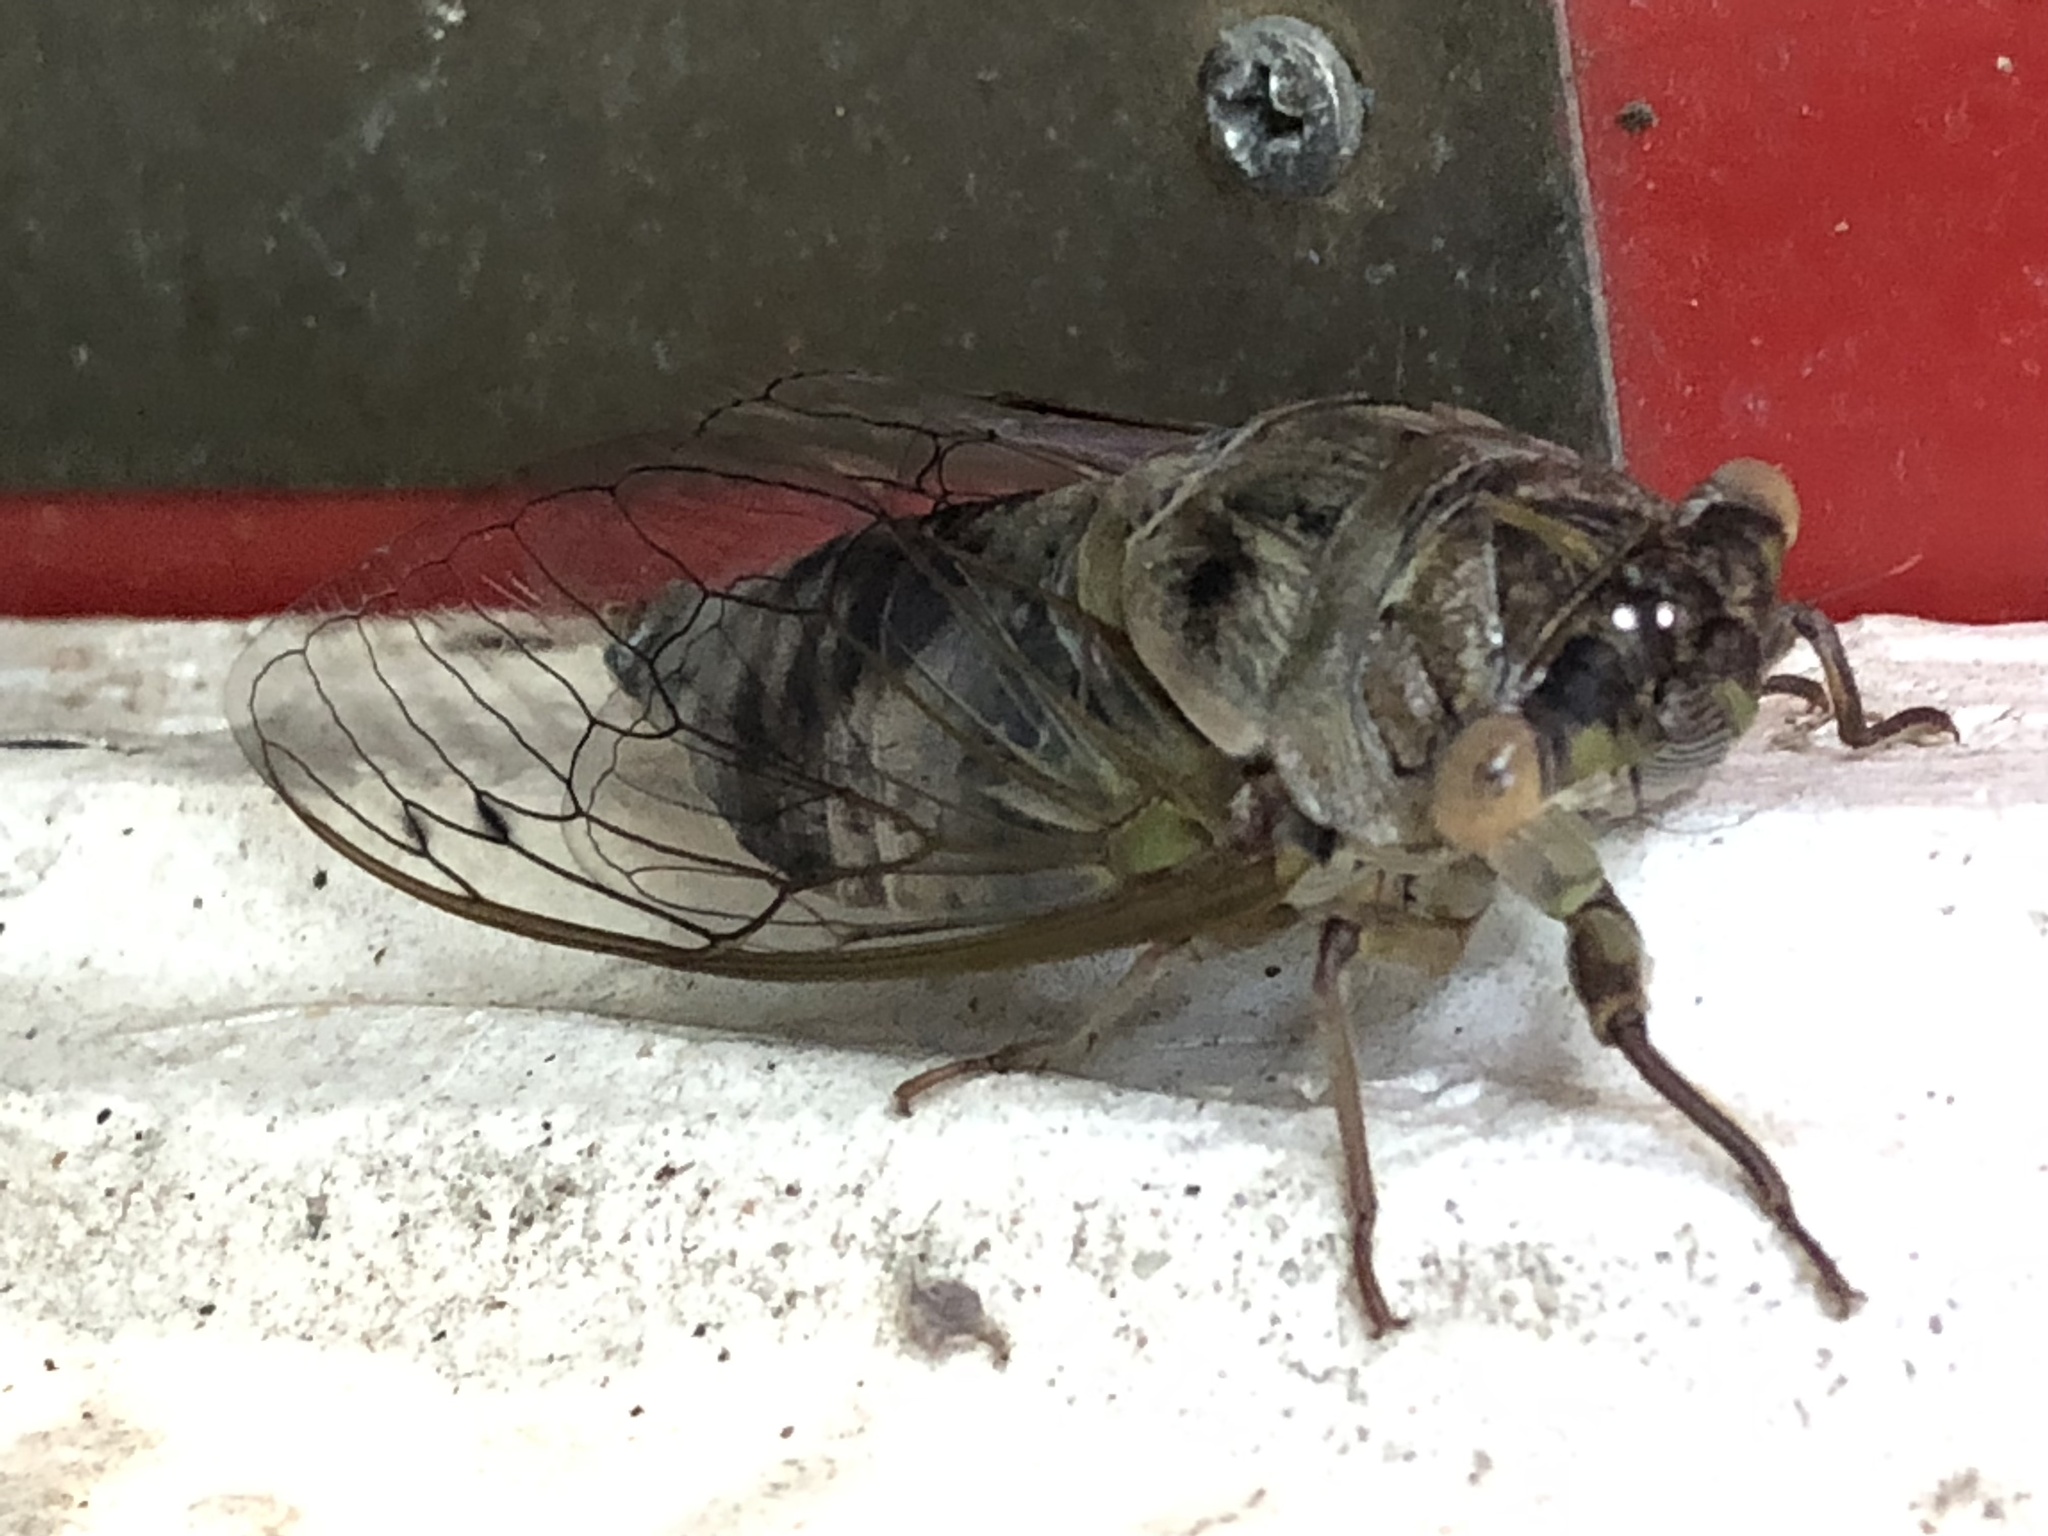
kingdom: Animalia
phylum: Arthropoda
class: Insecta
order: Hemiptera
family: Cicadidae
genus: Diceroprocta
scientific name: Diceroprocta grossa
